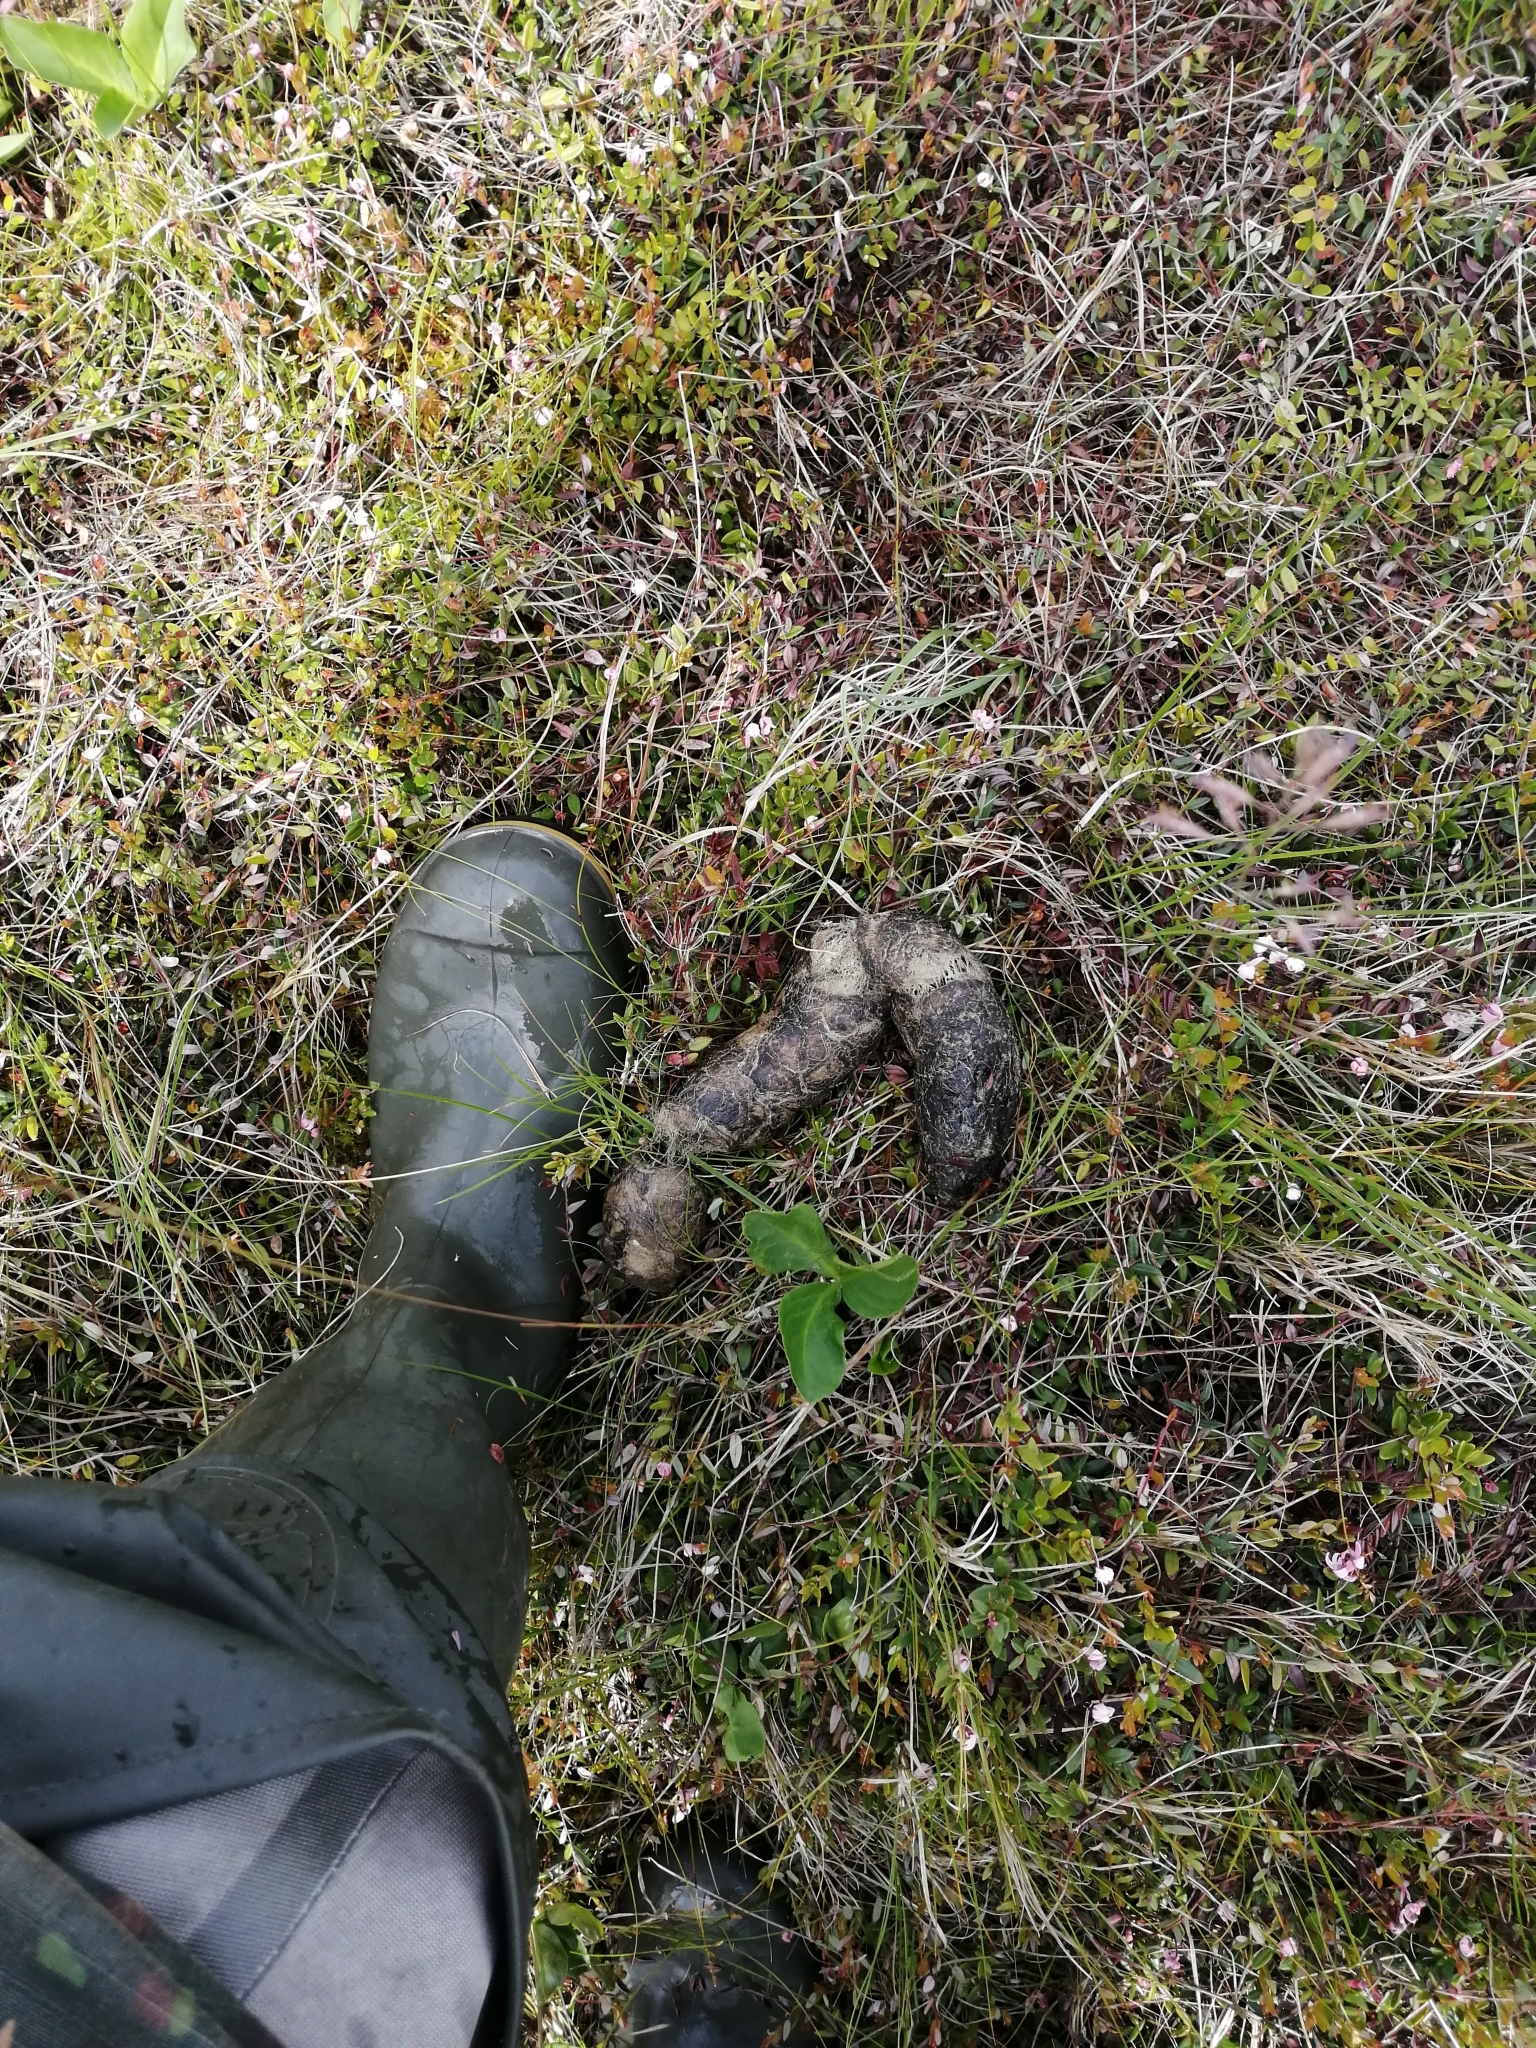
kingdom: Animalia
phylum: Chordata
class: Mammalia
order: Carnivora
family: Canidae
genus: Canis
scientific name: Canis lupus
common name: Gray wolf
